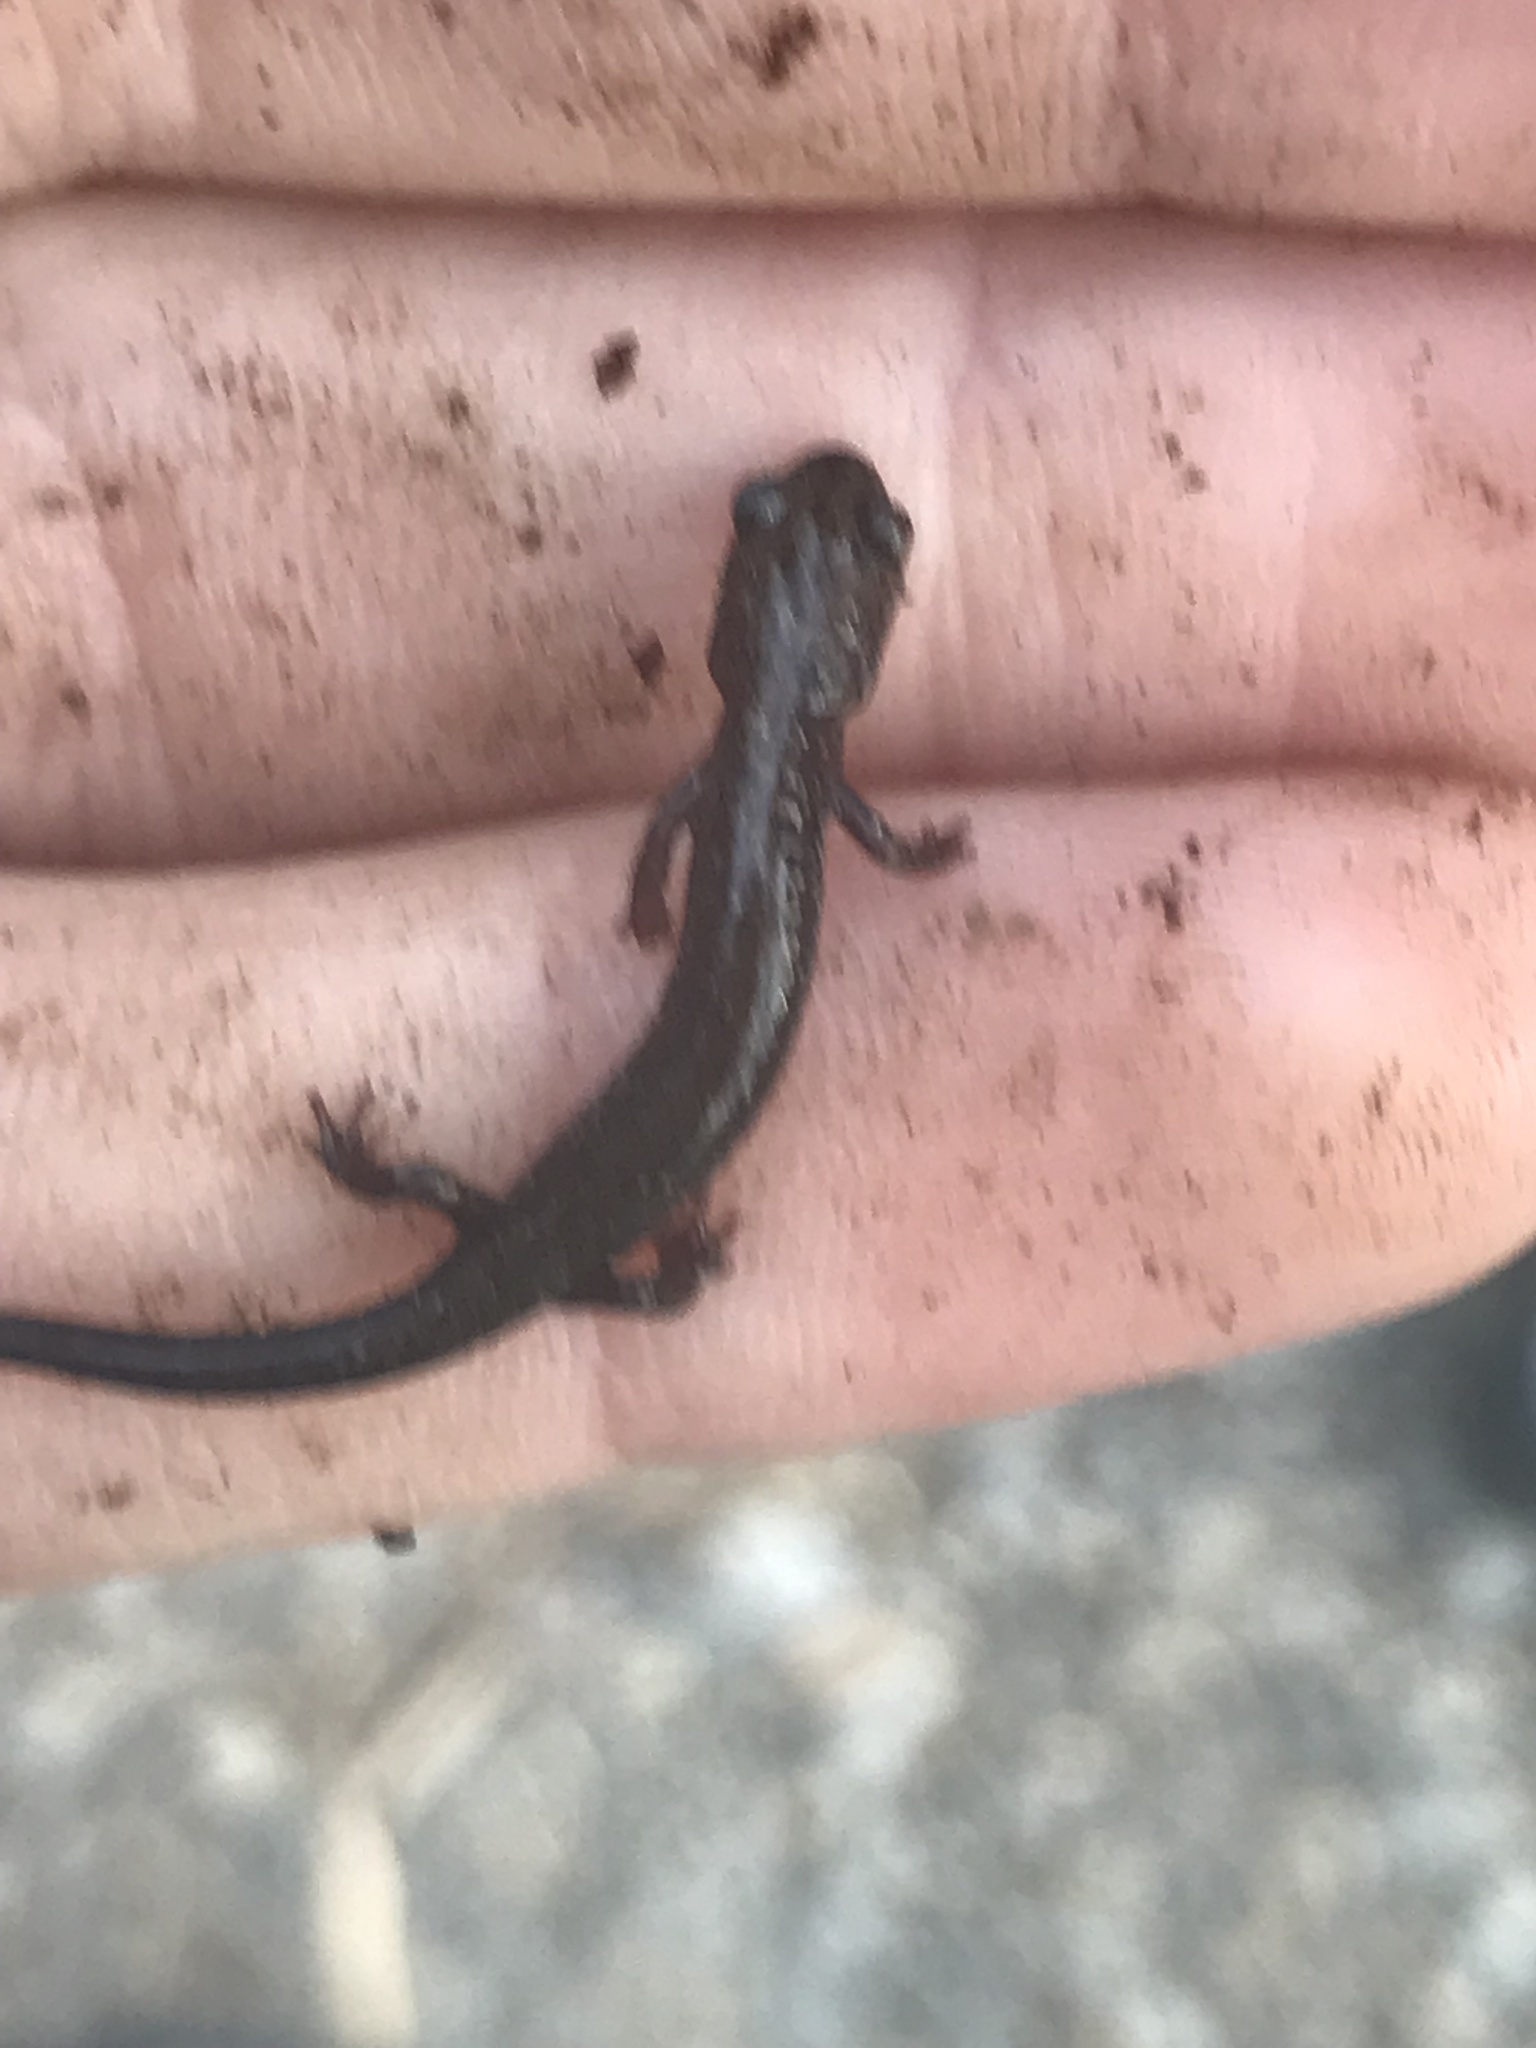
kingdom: Animalia
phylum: Chordata
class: Amphibia
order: Caudata
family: Plethodontidae
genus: Plethodon
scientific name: Plethodon hubrichti
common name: Peaks of otter salamander
